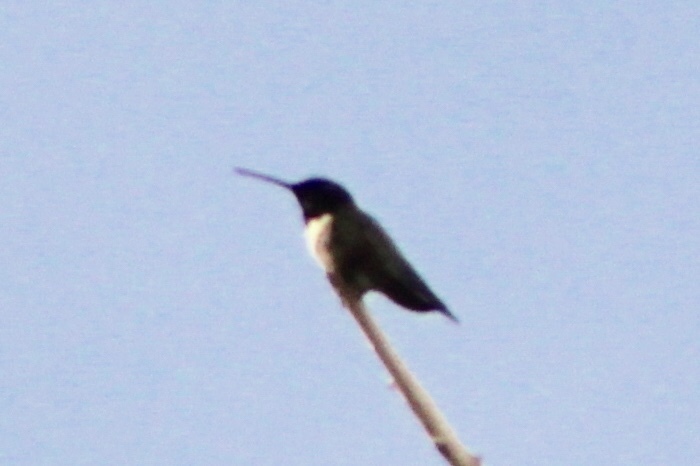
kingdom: Animalia
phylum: Chordata
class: Aves
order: Apodiformes
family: Trochilidae
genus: Archilochus
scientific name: Archilochus alexandri
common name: Black-chinned hummingbird
